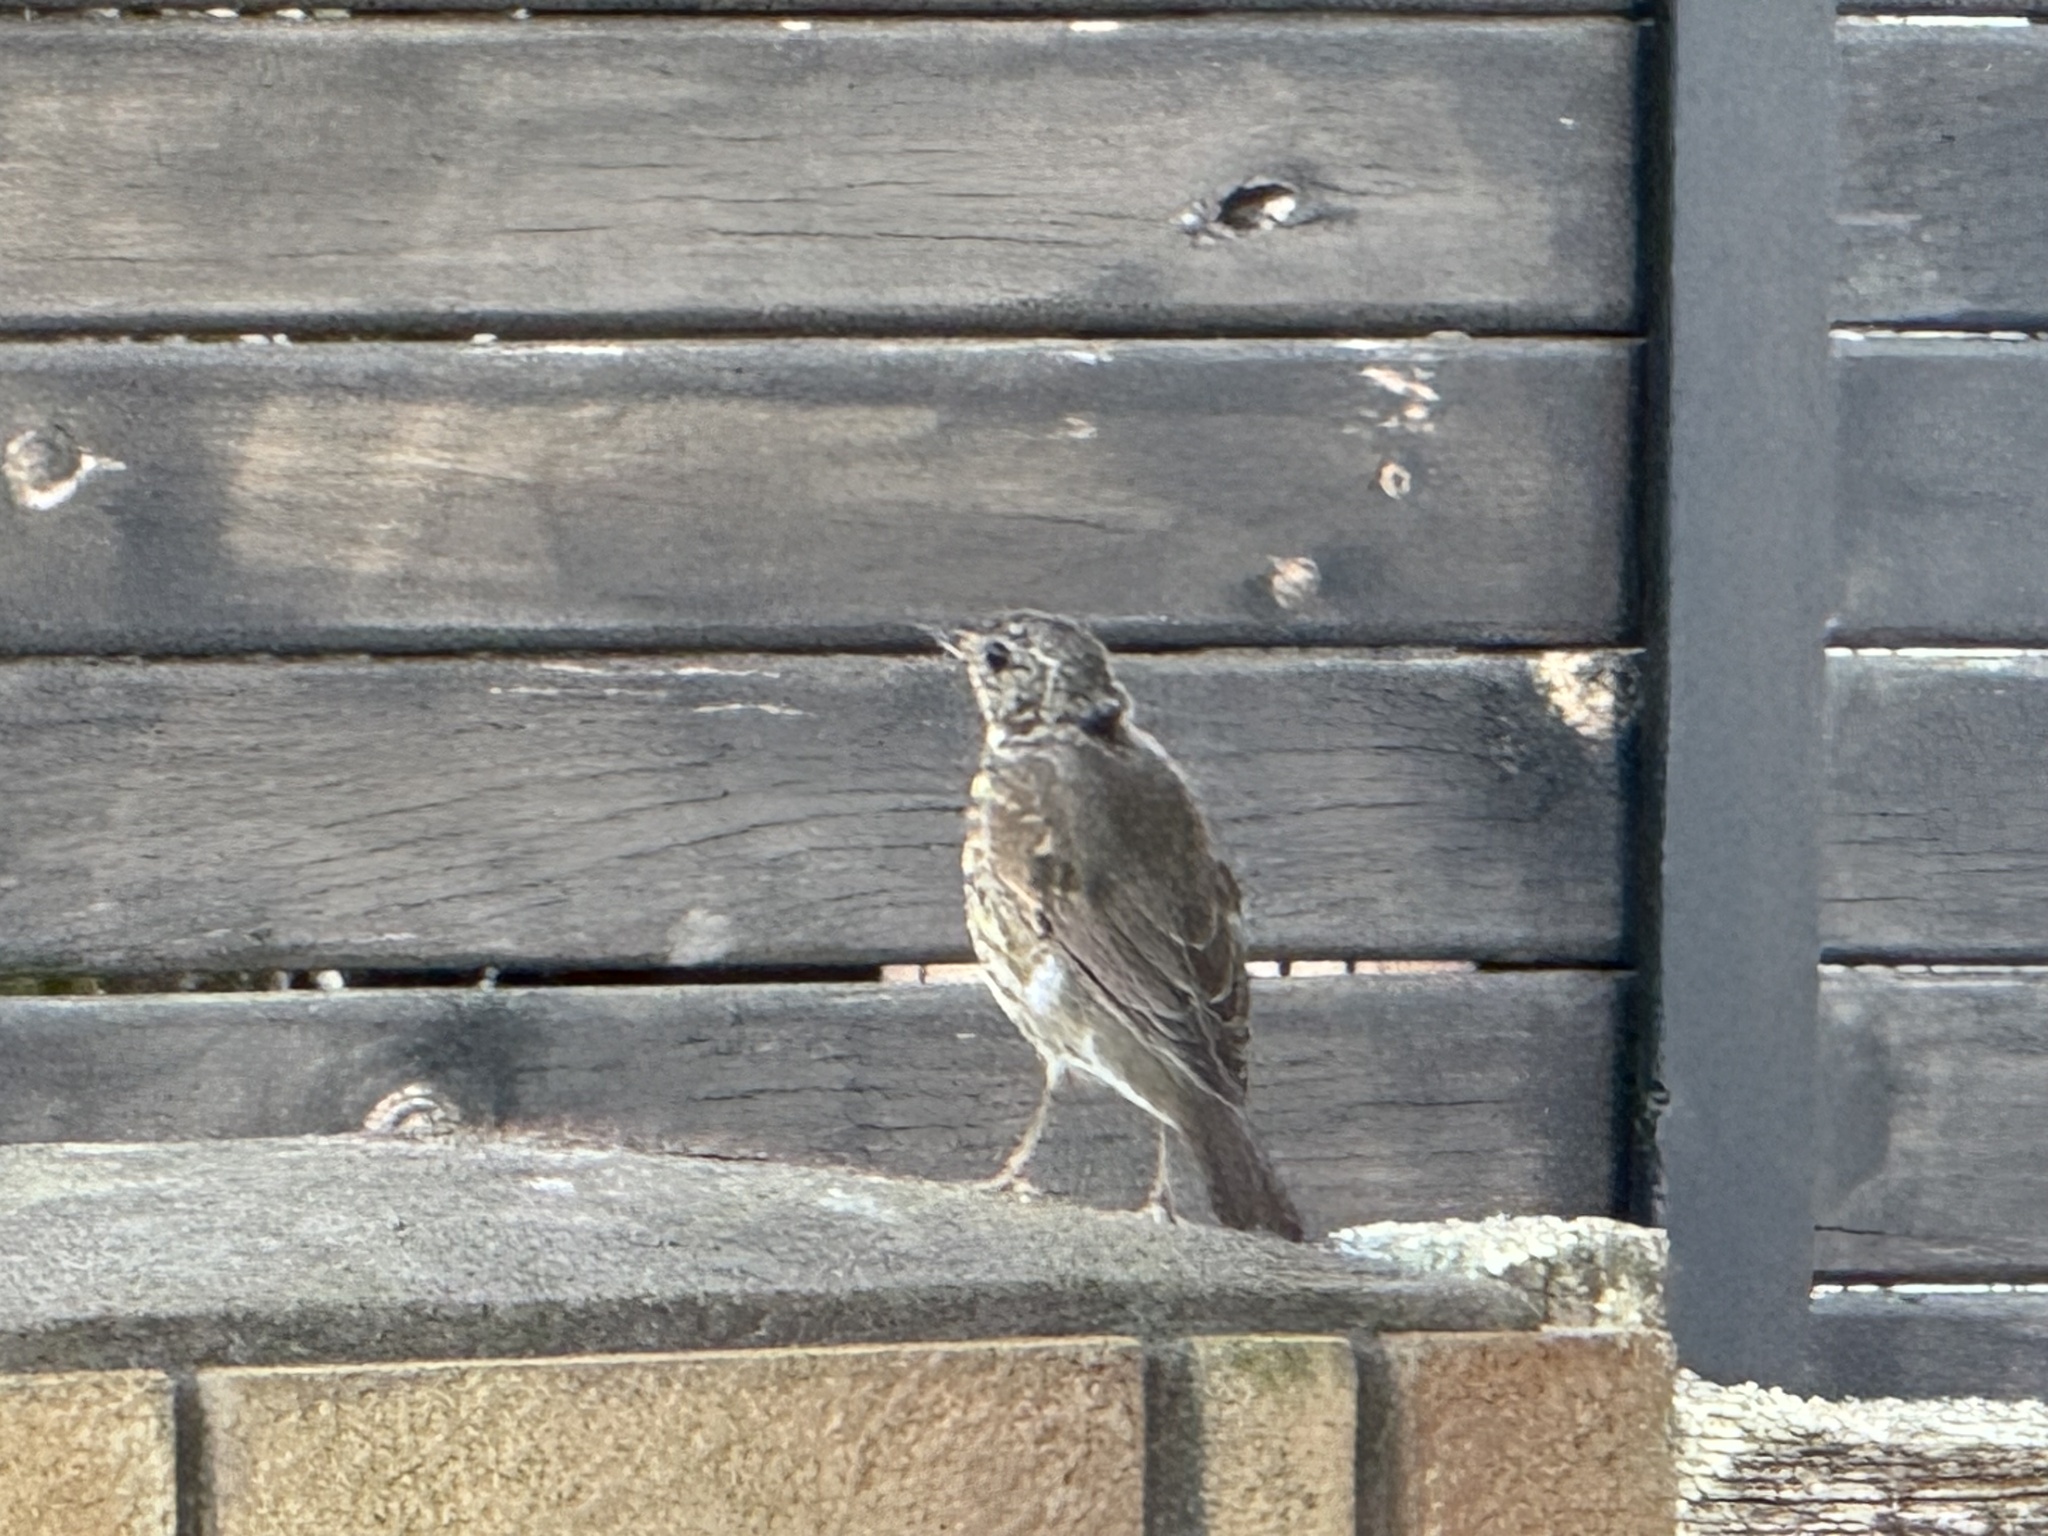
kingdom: Animalia
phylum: Chordata
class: Aves
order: Passeriformes
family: Turdidae
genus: Turdus
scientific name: Turdus philomelos
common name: Song thrush
